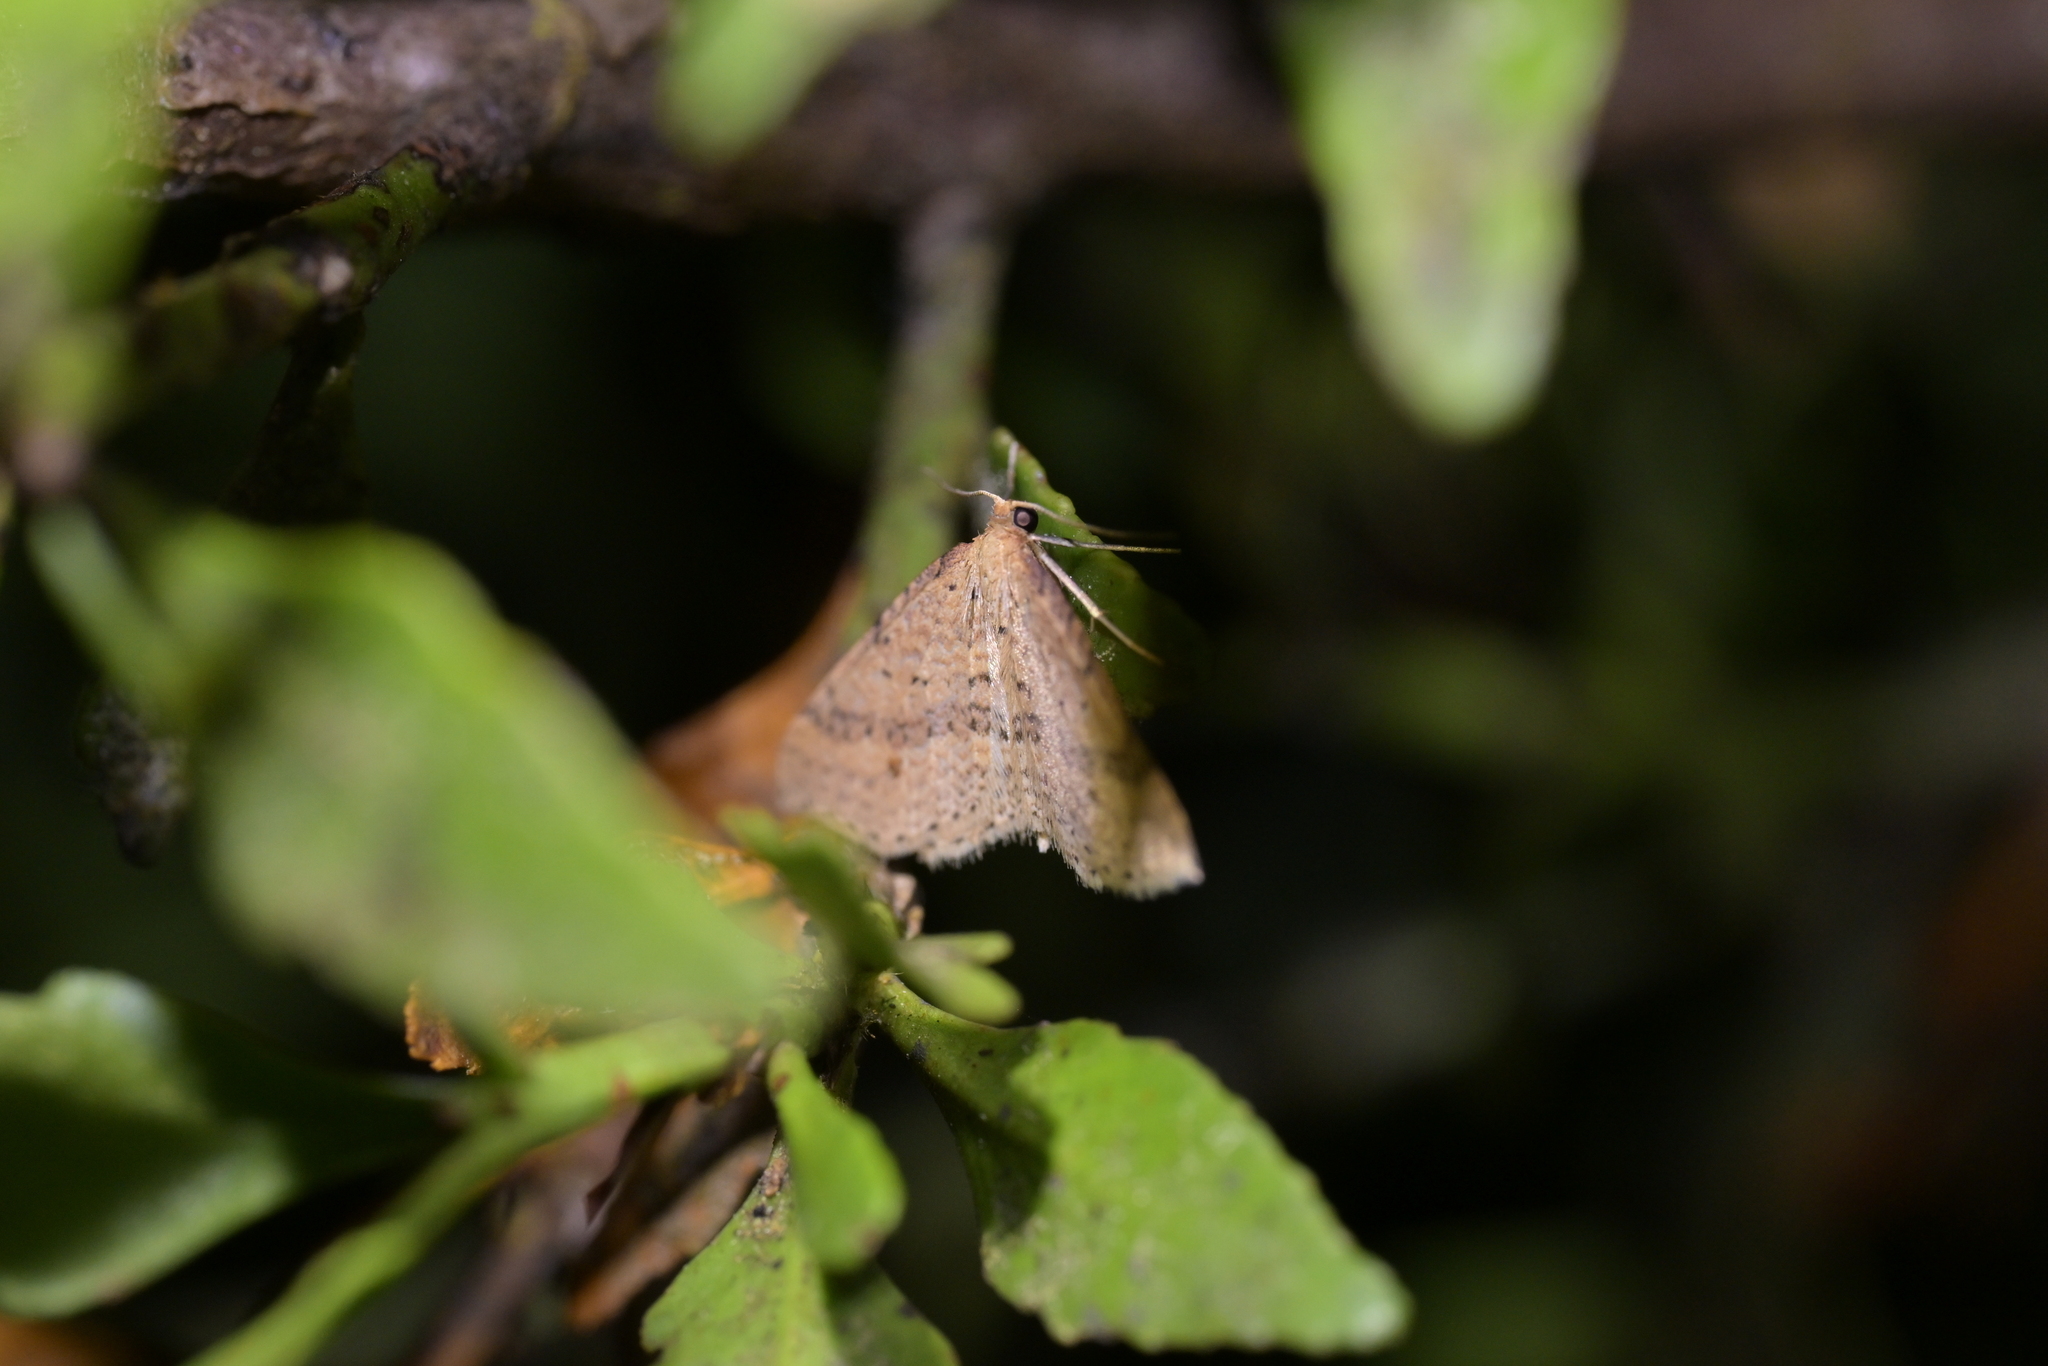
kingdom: Animalia
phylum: Arthropoda
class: Insecta
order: Lepidoptera
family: Geometridae
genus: Epicyme
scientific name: Epicyme rubropunctaria
